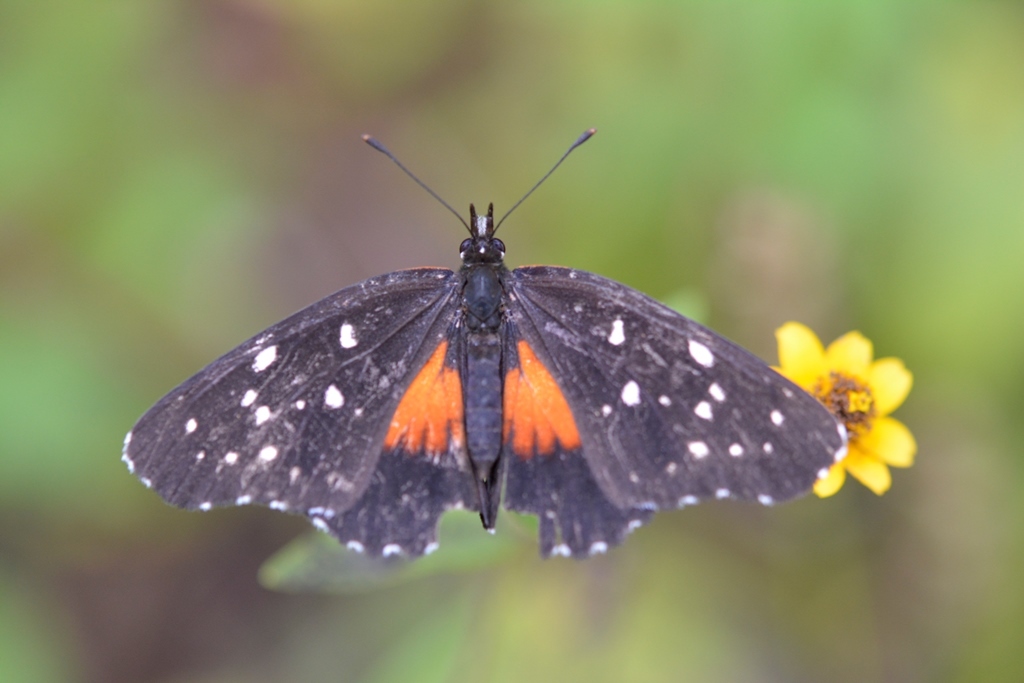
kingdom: Animalia
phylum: Arthropoda
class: Insecta
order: Lepidoptera
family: Nymphalidae
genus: Chlosyne
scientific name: Chlosyne rosita
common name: Rosita patch
